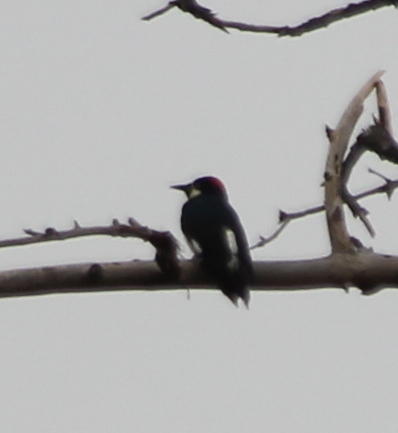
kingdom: Animalia
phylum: Chordata
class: Aves
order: Piciformes
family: Picidae
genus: Melanerpes
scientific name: Melanerpes formicivorus
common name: Acorn woodpecker
